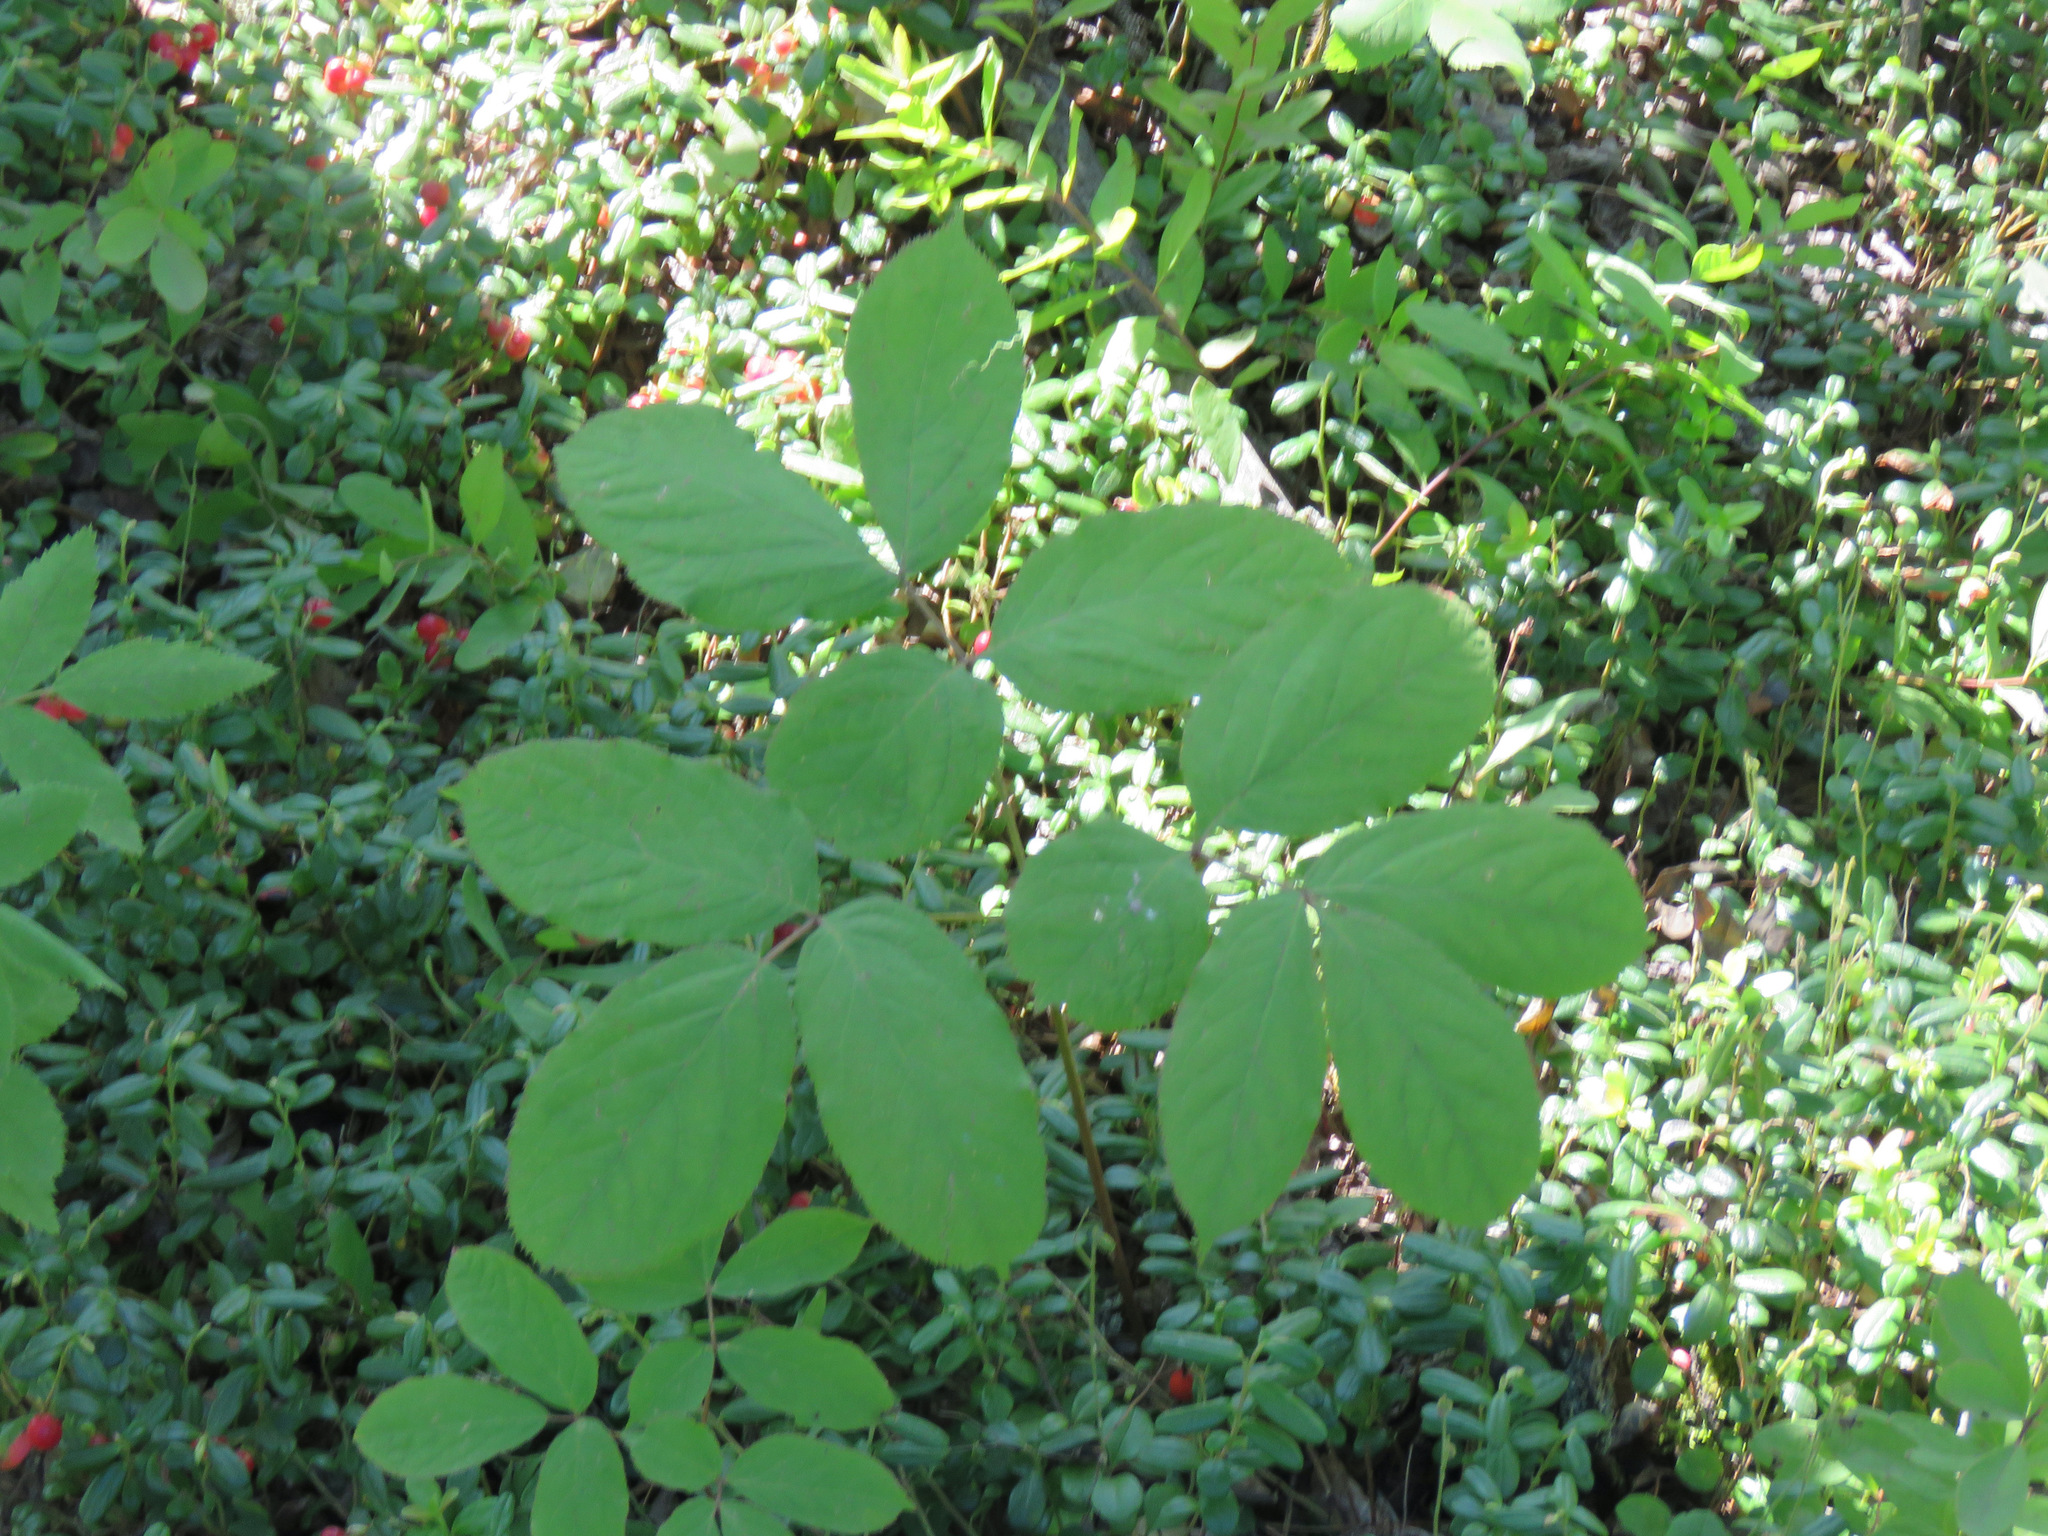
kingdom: Plantae
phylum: Tracheophyta
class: Magnoliopsida
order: Apiales
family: Araliaceae
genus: Aralia
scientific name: Aralia nudicaulis
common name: Wild sarsaparilla
